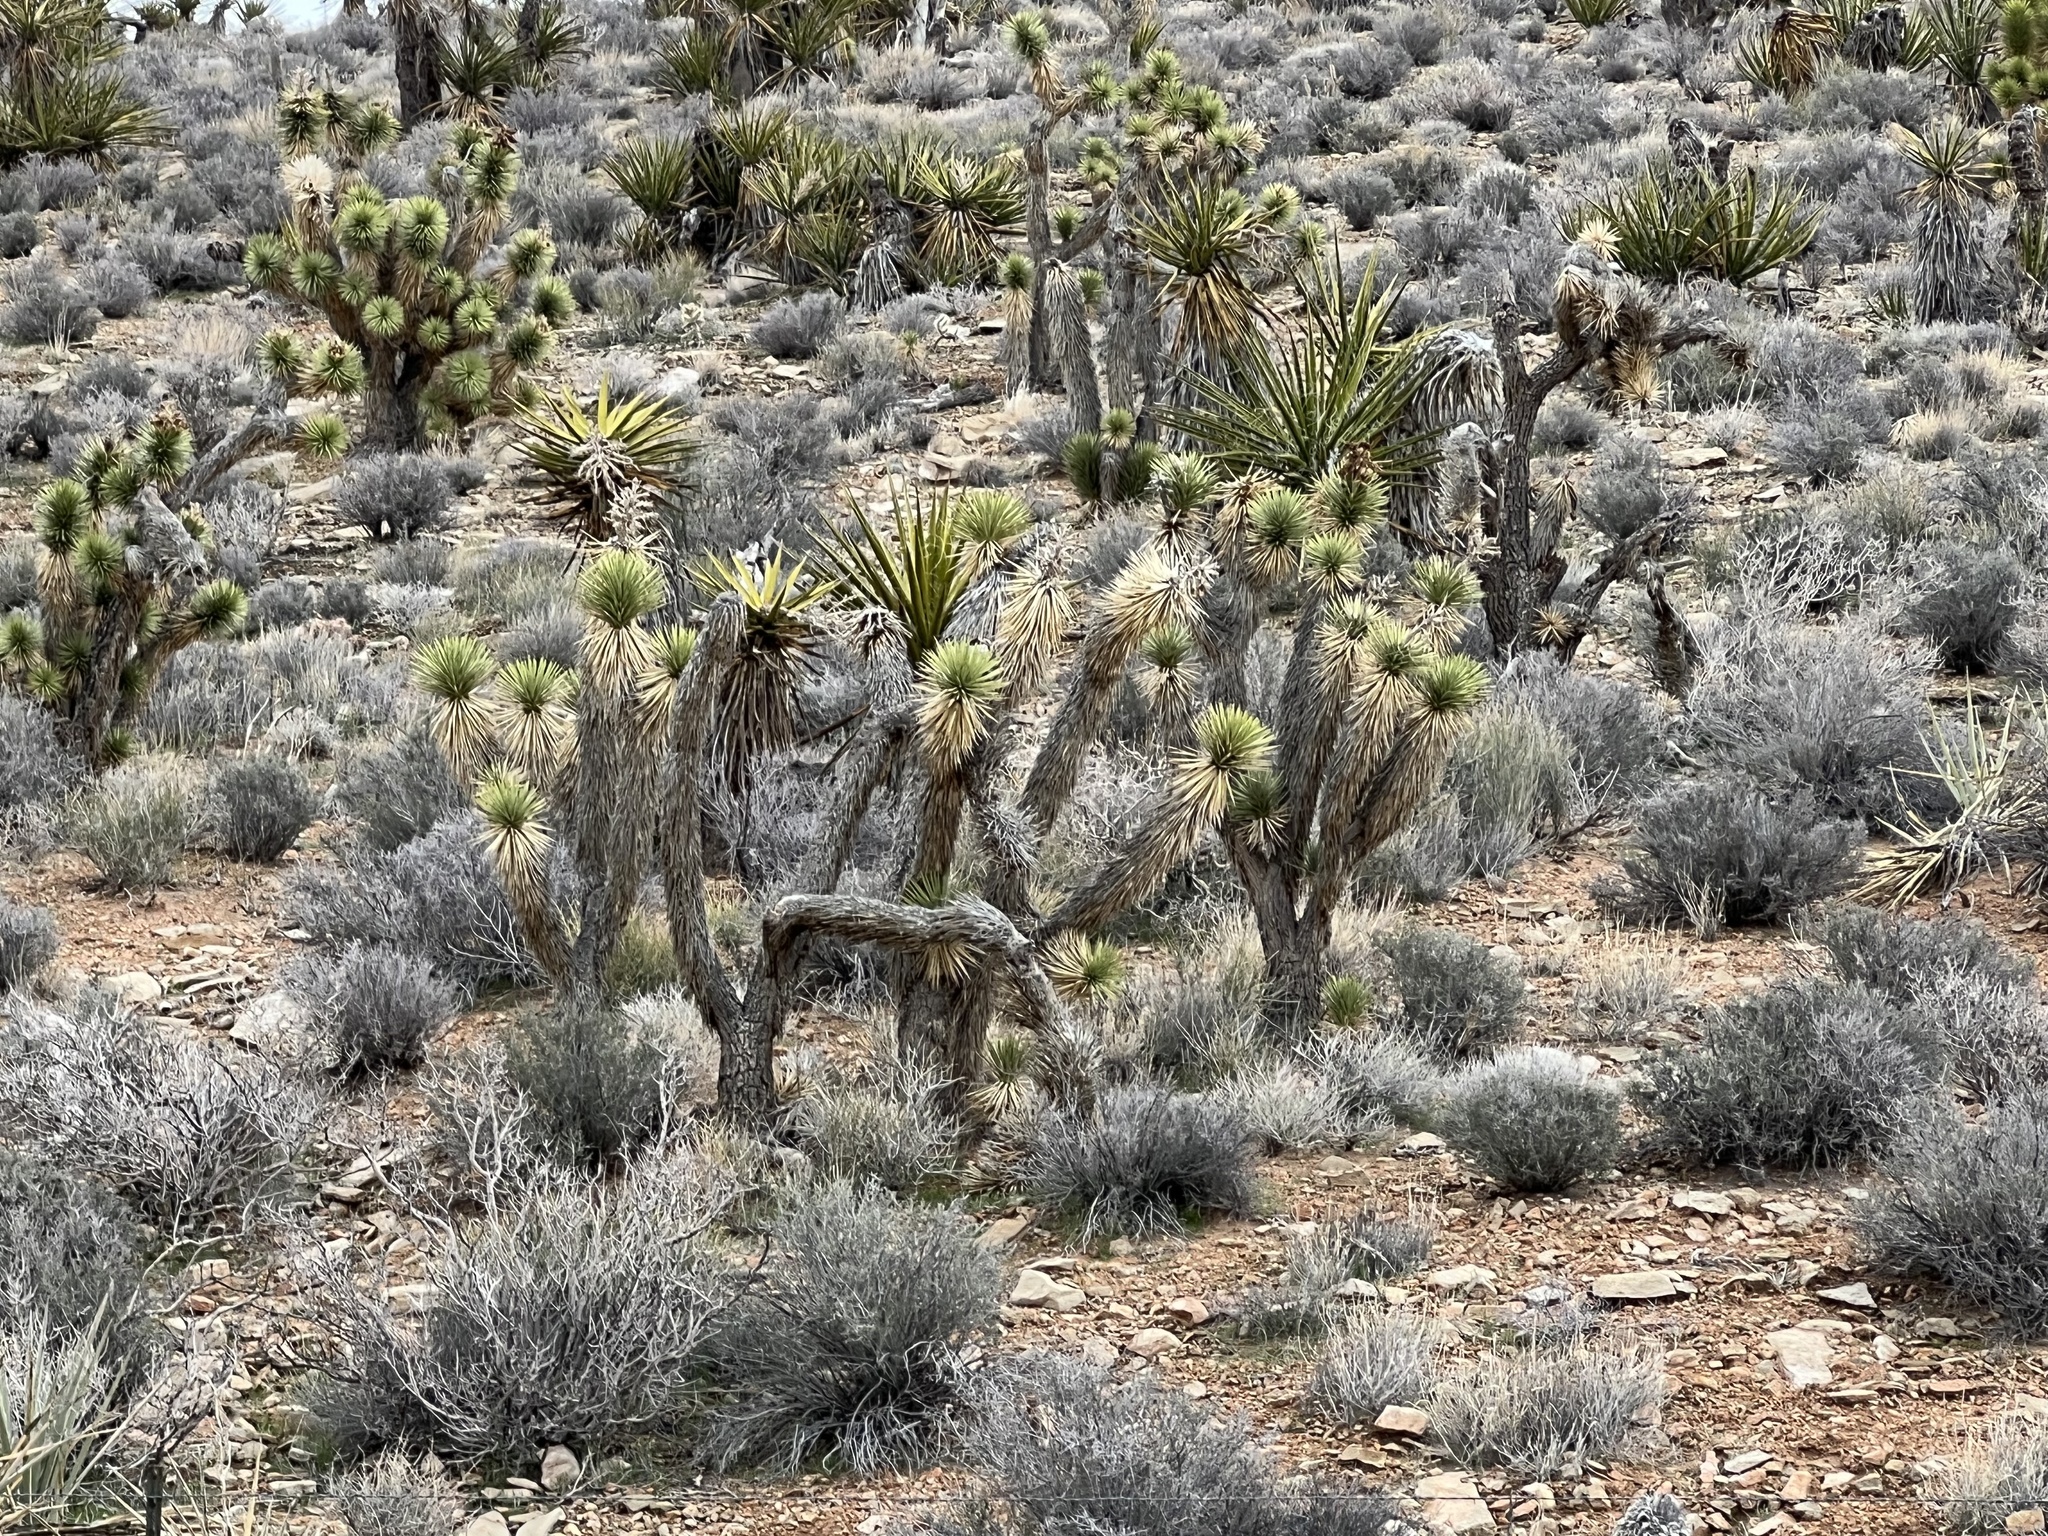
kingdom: Plantae
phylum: Tracheophyta
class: Liliopsida
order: Asparagales
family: Asparagaceae
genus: Yucca
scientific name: Yucca brevifolia
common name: Joshua tree
